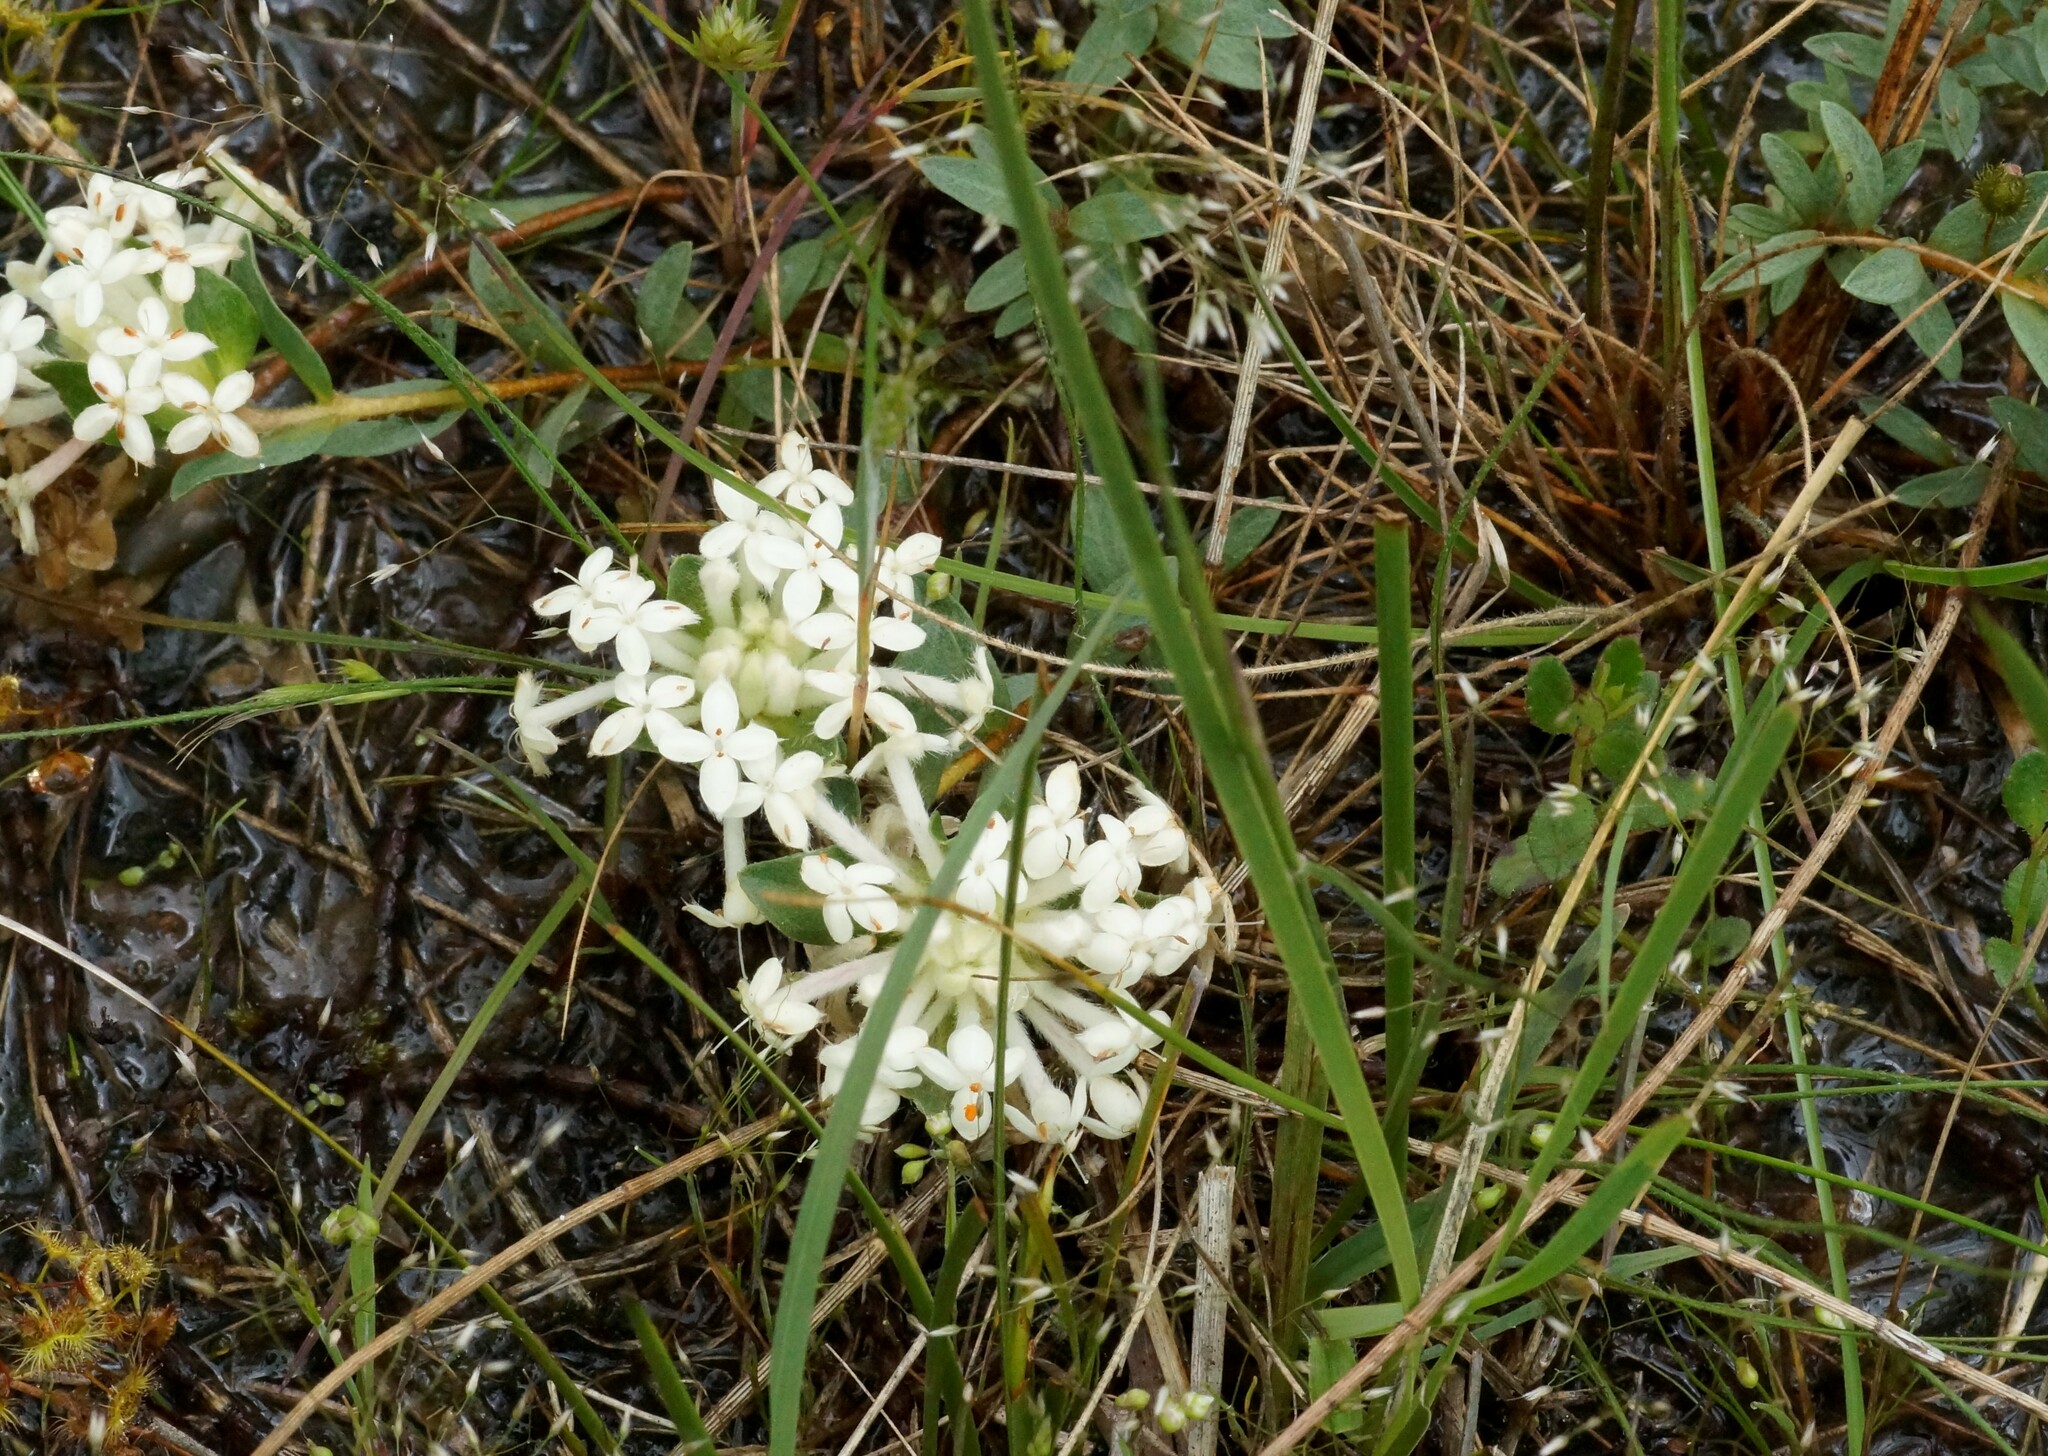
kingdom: Plantae
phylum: Tracheophyta
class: Magnoliopsida
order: Malvales
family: Thymelaeaceae
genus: Pimelea
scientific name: Pimelea humilis
